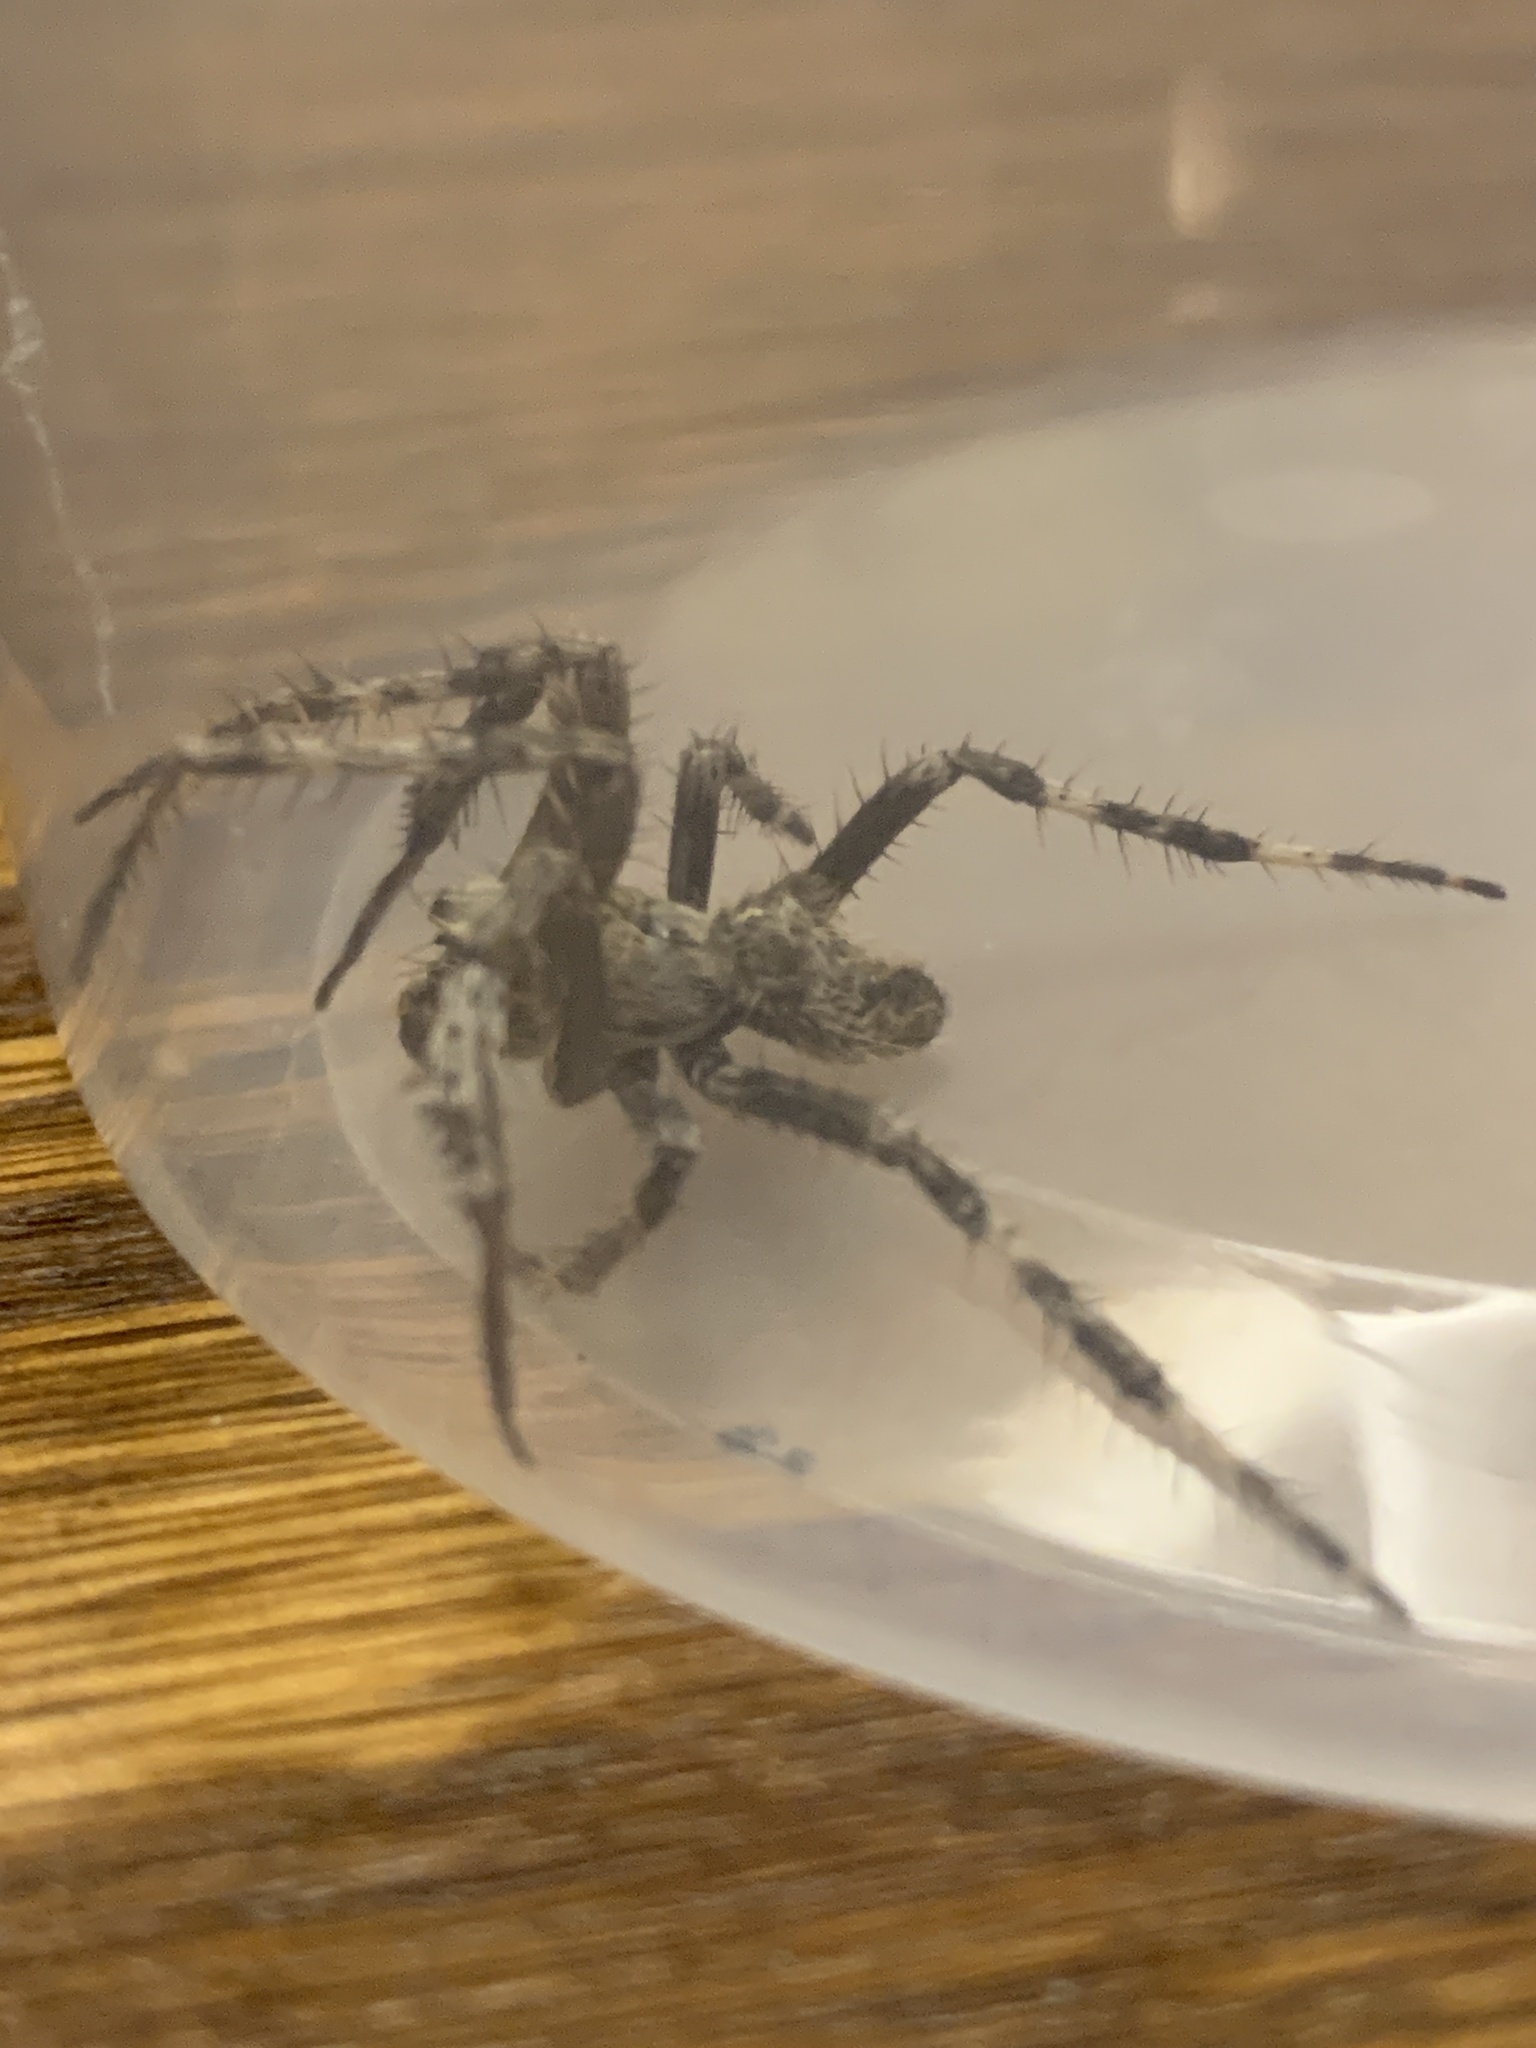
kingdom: Animalia
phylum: Arthropoda
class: Arachnida
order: Araneae
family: Araneidae
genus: Araneus
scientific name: Araneus saevus
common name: Fierce orbweaver
